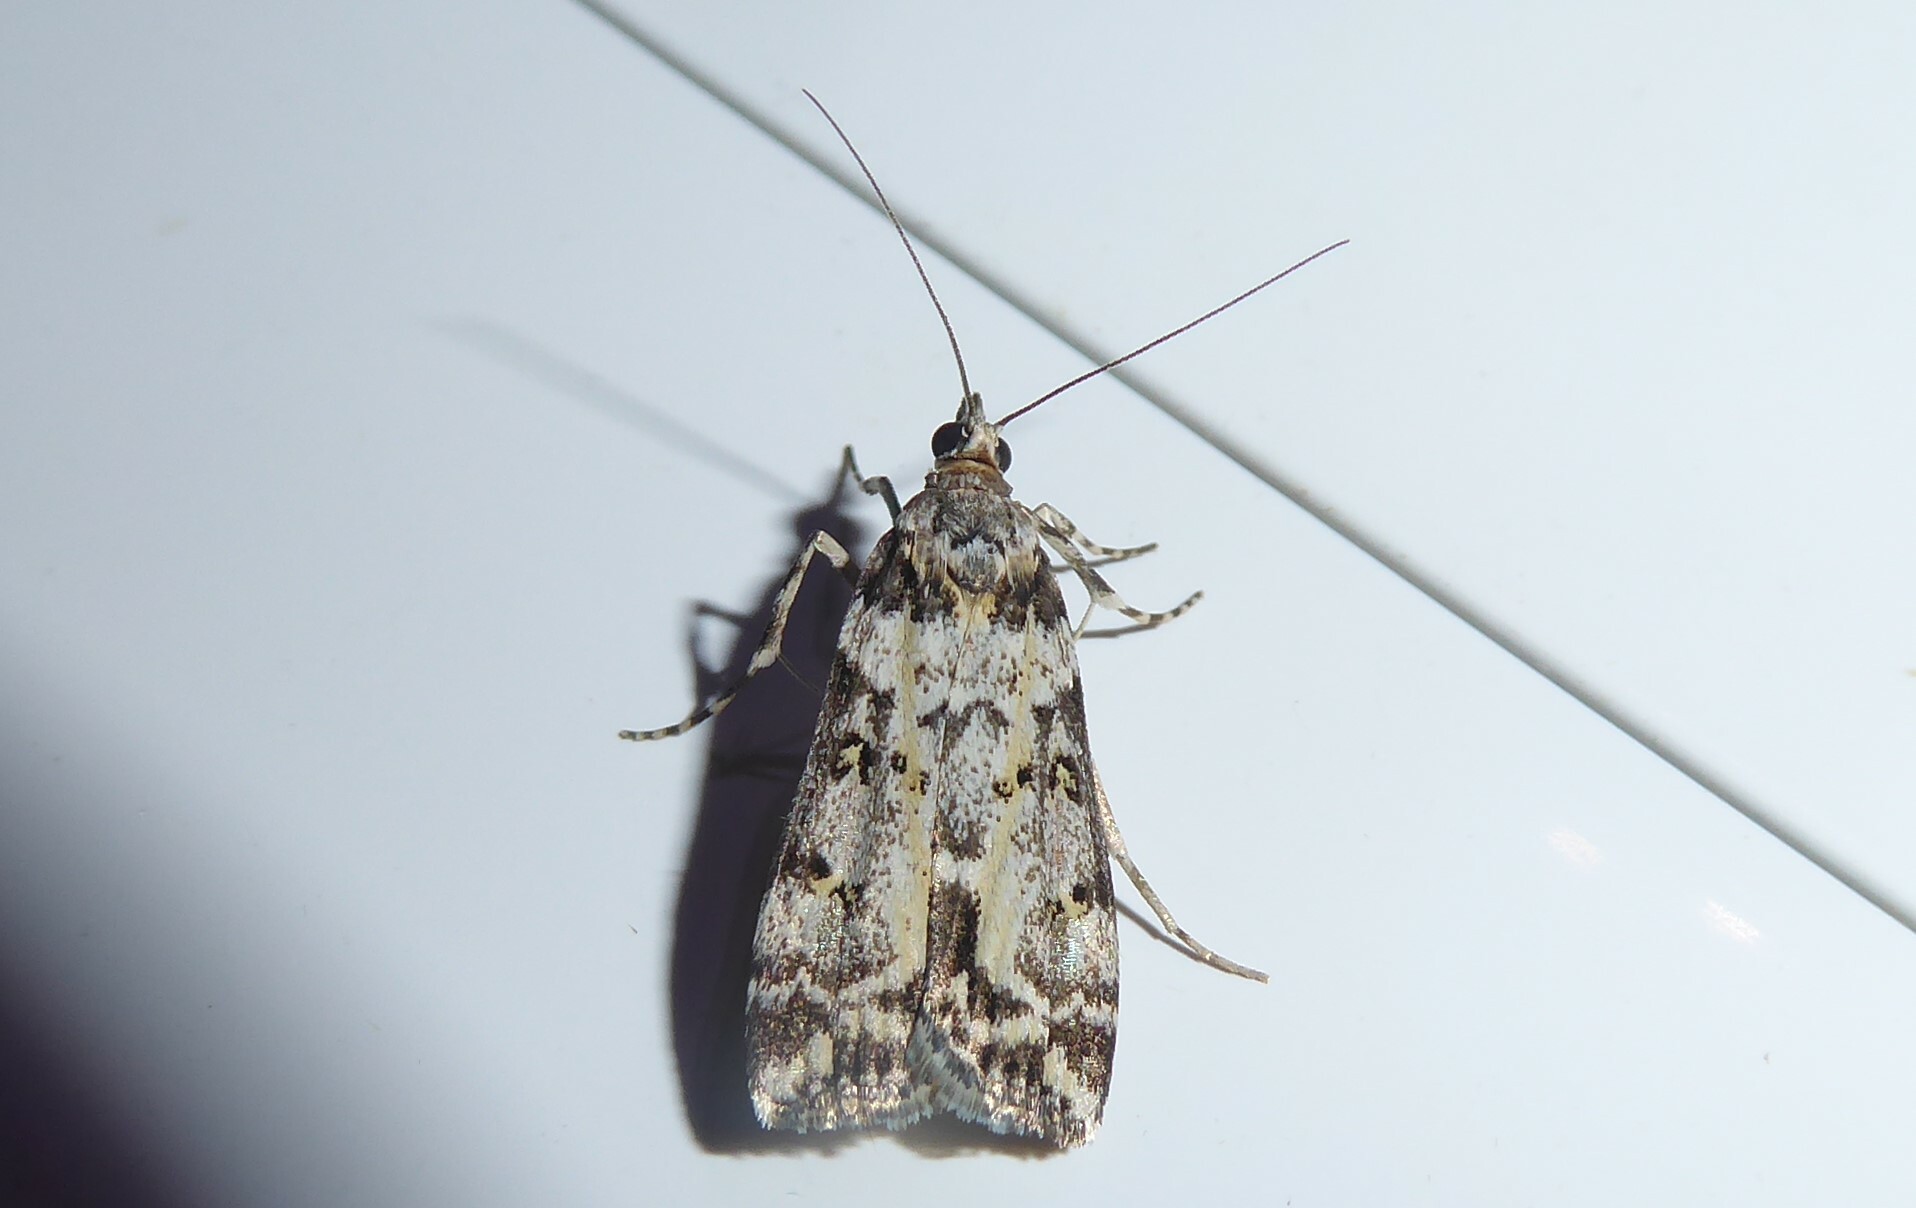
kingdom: Animalia
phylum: Arthropoda
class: Insecta
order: Lepidoptera
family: Crambidae
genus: Eudonia
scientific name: Eudonia diphtheralis
